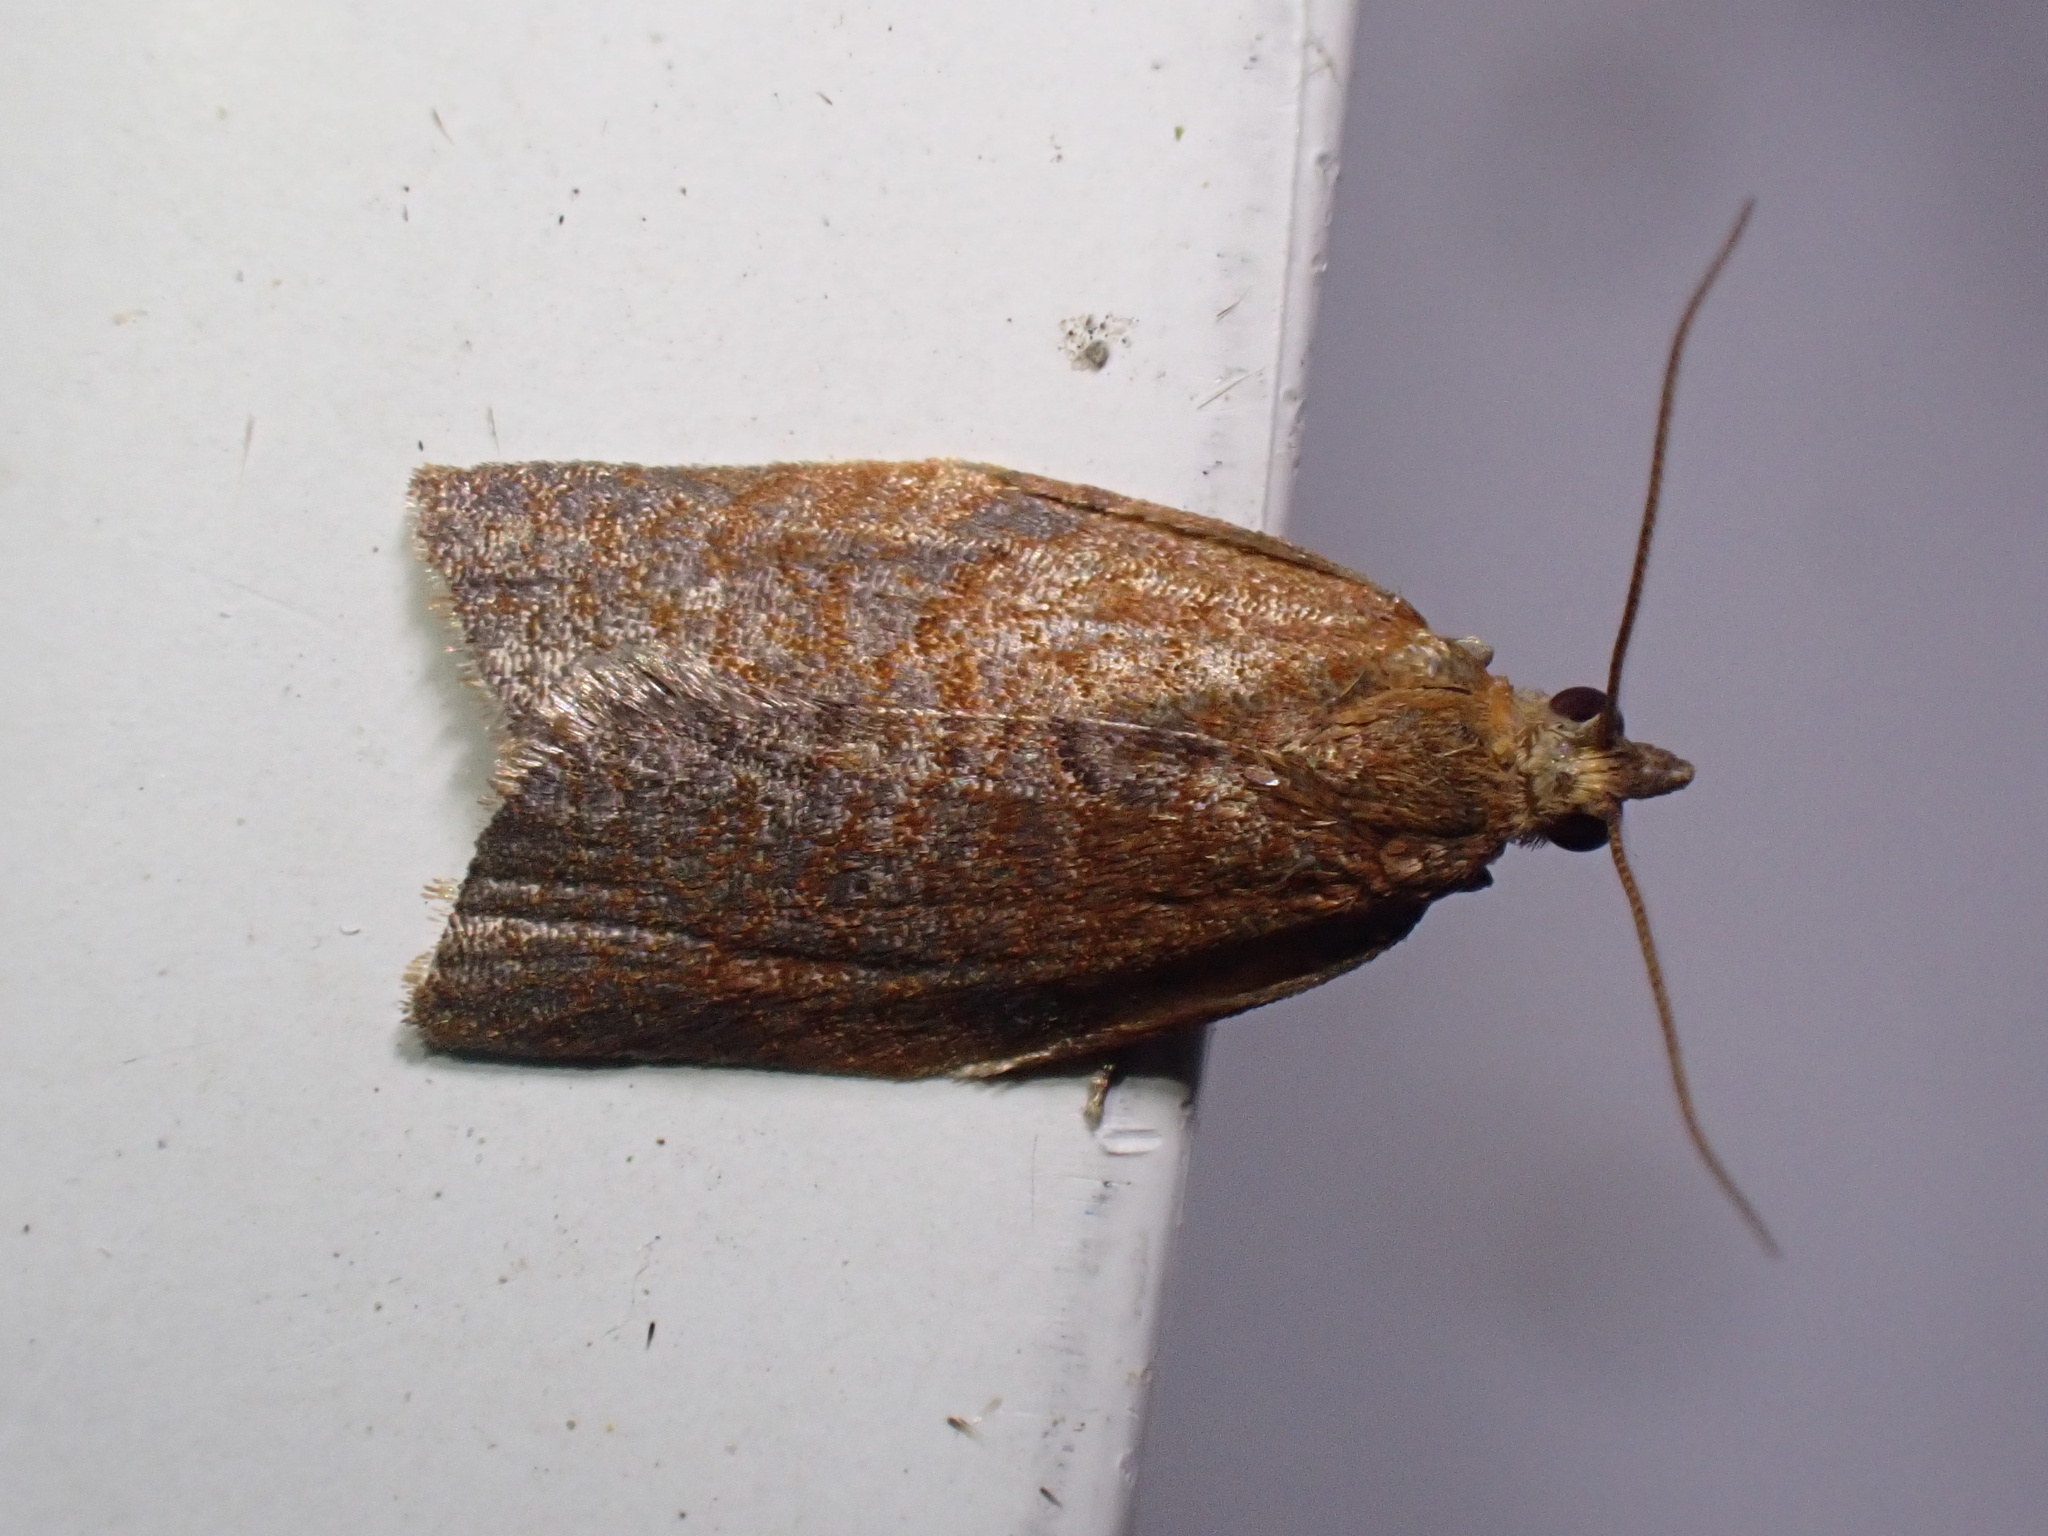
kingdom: Animalia
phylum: Arthropoda
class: Insecta
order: Lepidoptera
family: Tortricidae
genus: Clepsis
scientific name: Clepsis consimilana
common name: Privet tortrix
